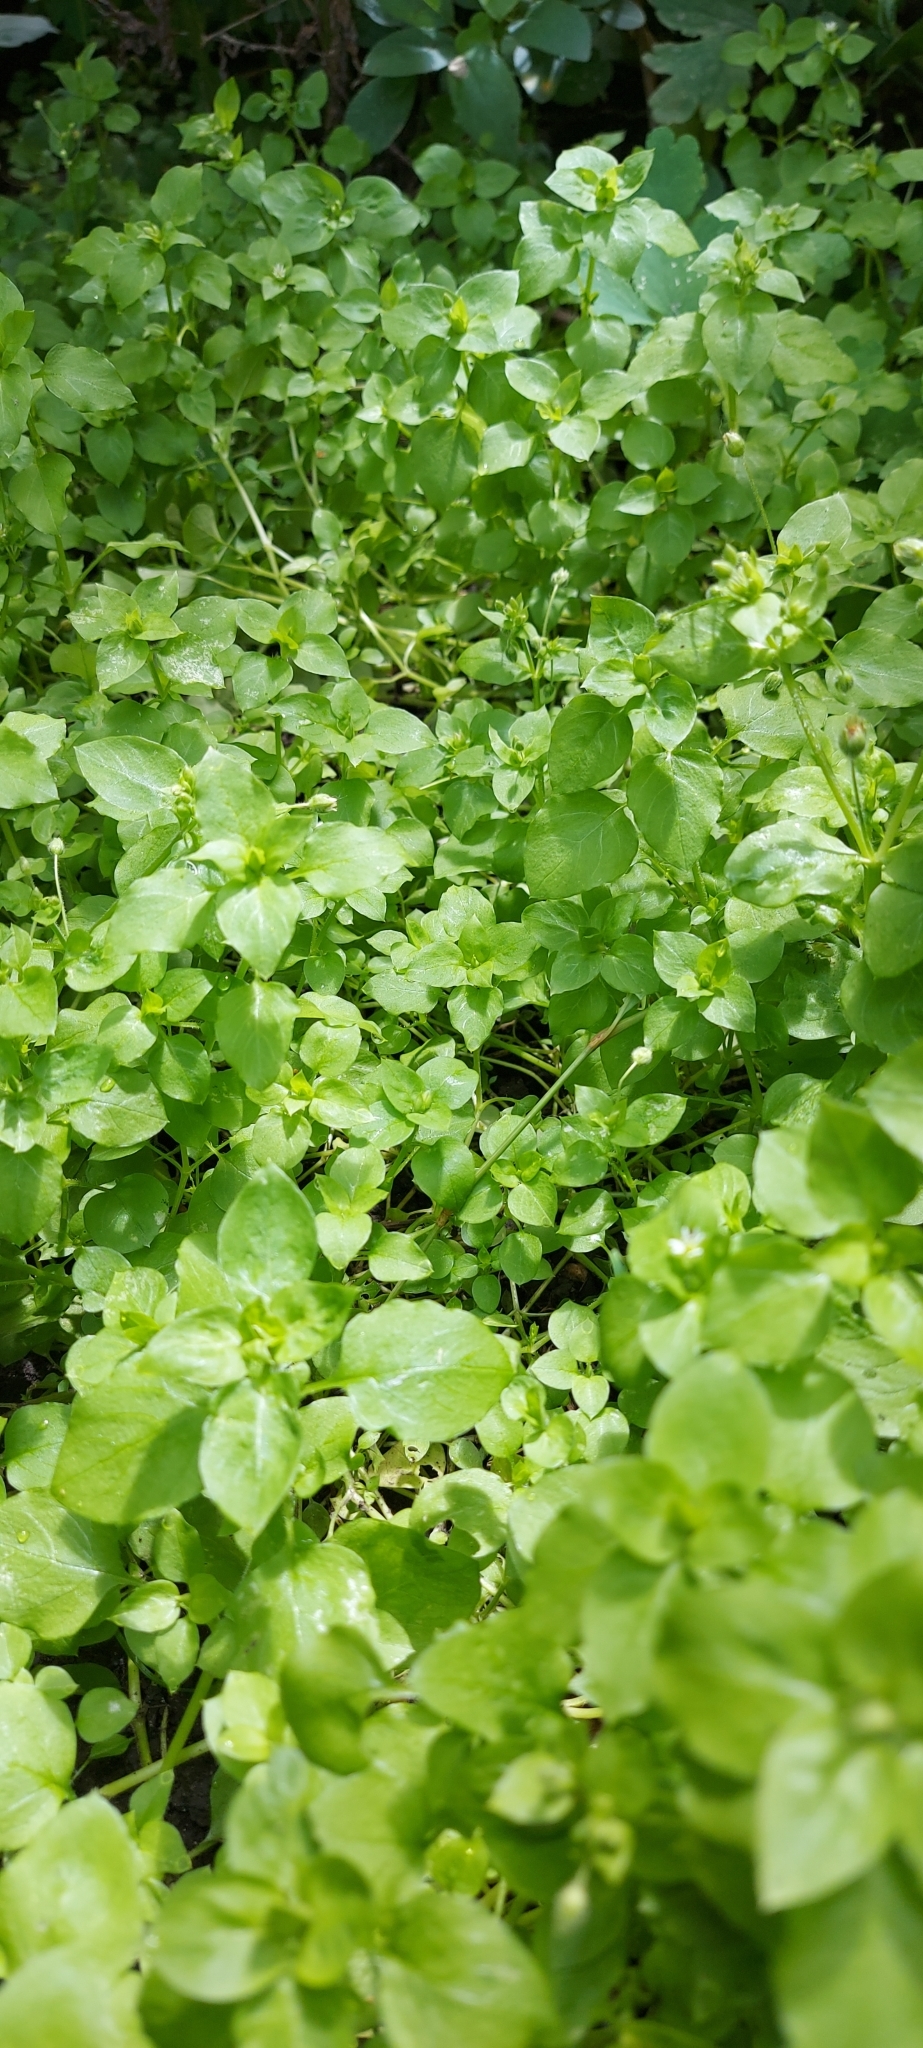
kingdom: Plantae
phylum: Tracheophyta
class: Magnoliopsida
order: Caryophyllales
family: Caryophyllaceae
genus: Stellaria
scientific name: Stellaria media
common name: Common chickweed
